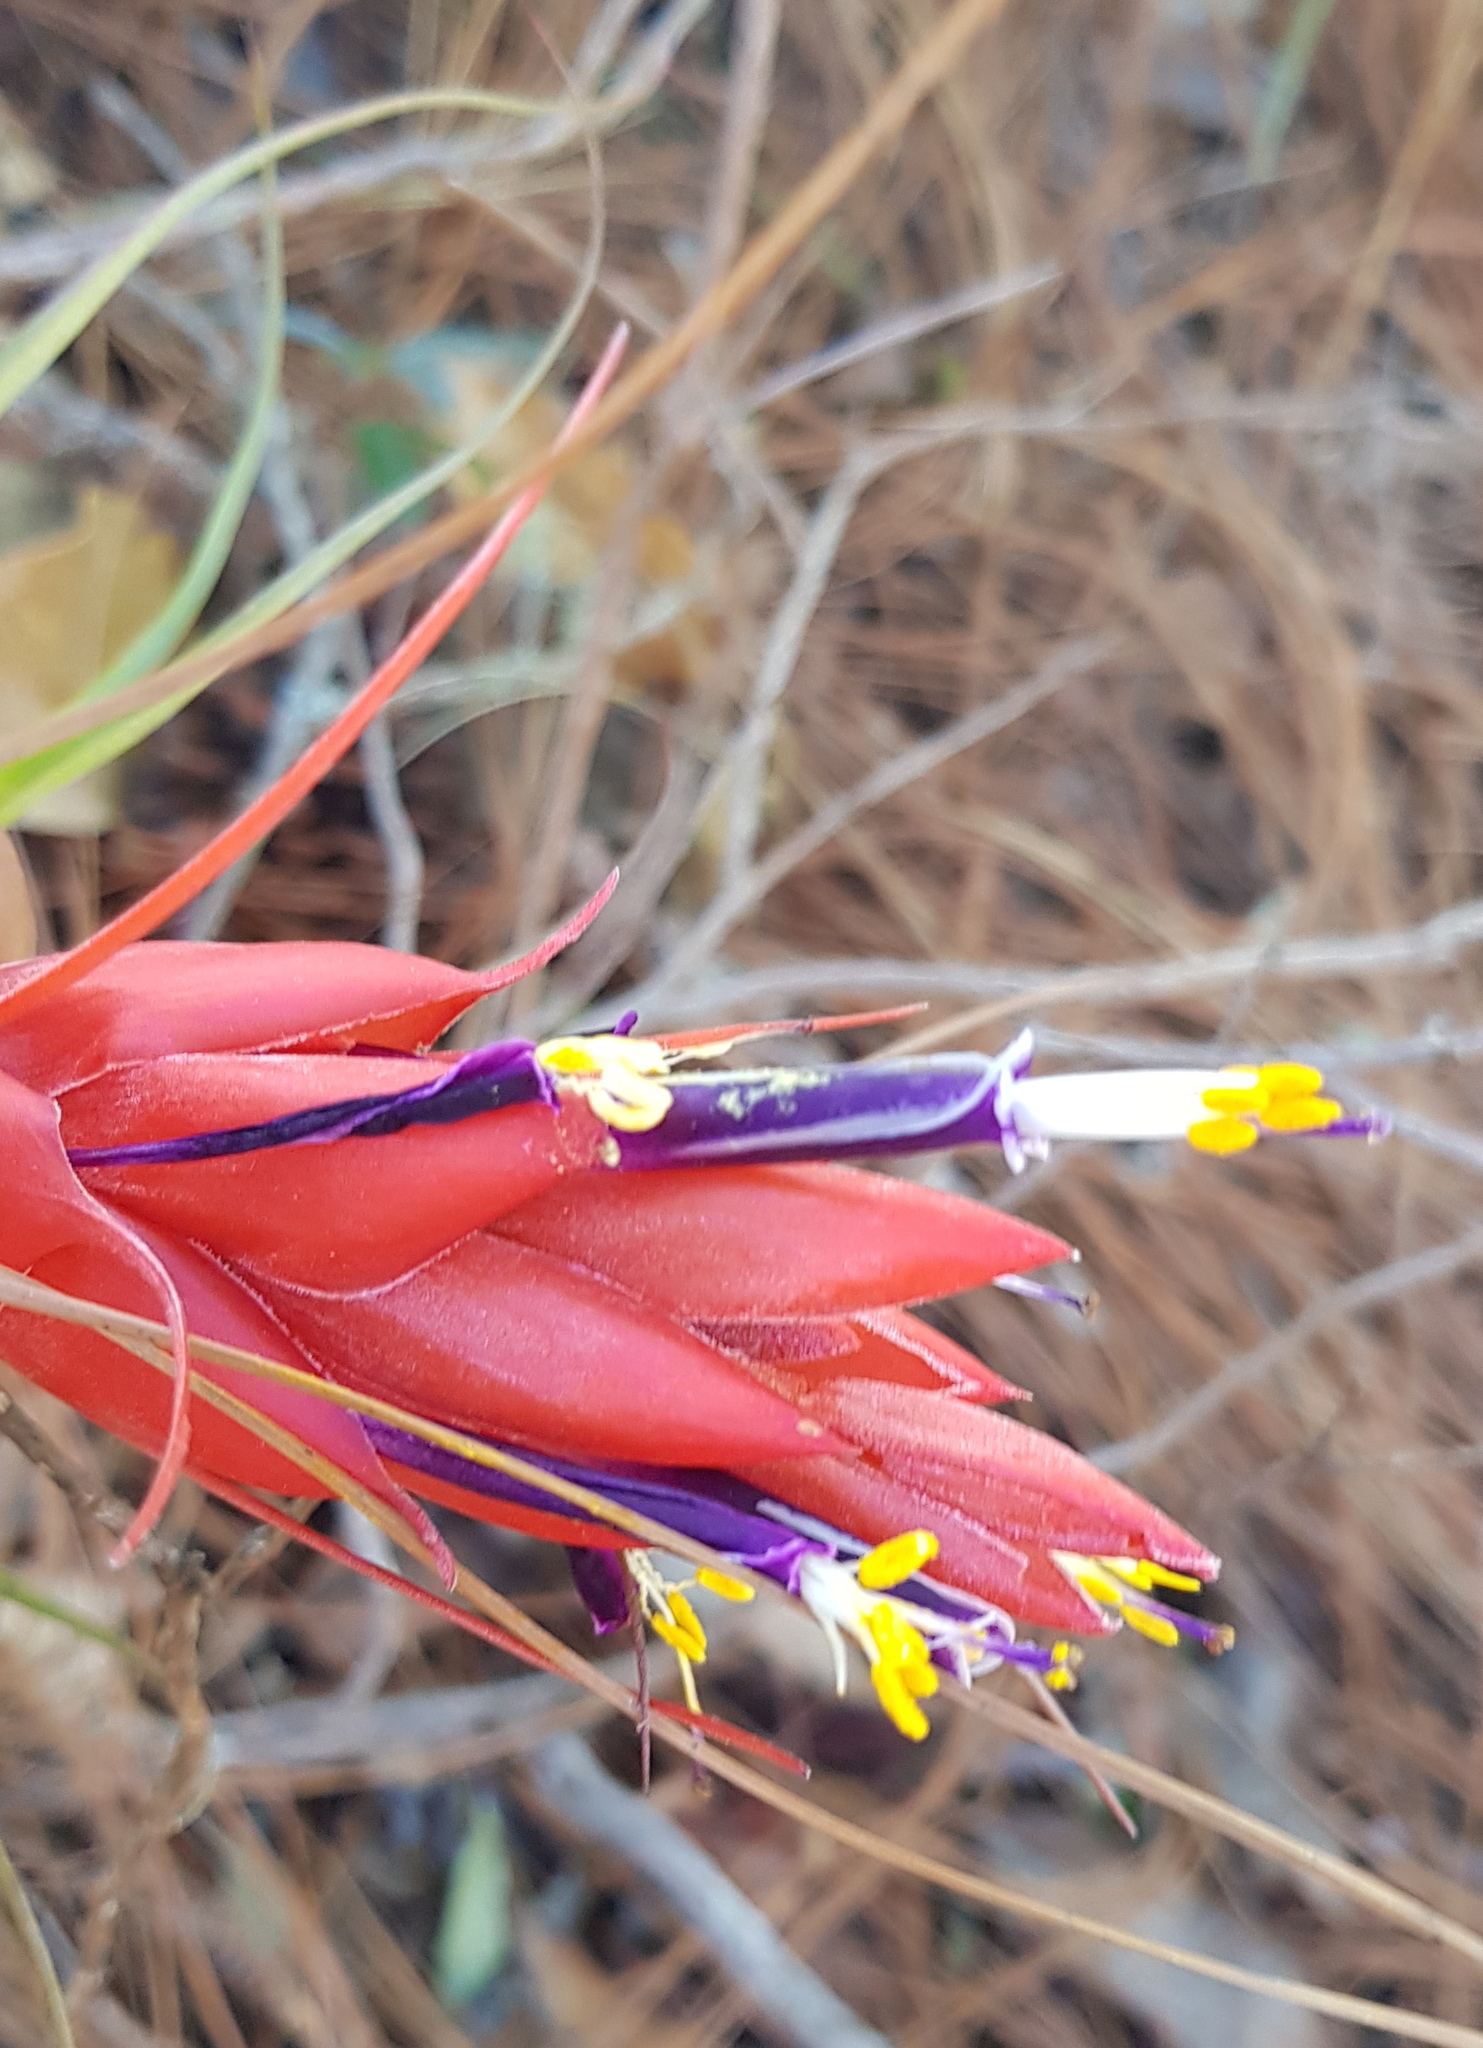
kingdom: Plantae
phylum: Tracheophyta
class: Liliopsida
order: Poales
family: Bromeliaceae
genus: Tillandsia
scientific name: Tillandsia oaxacana
